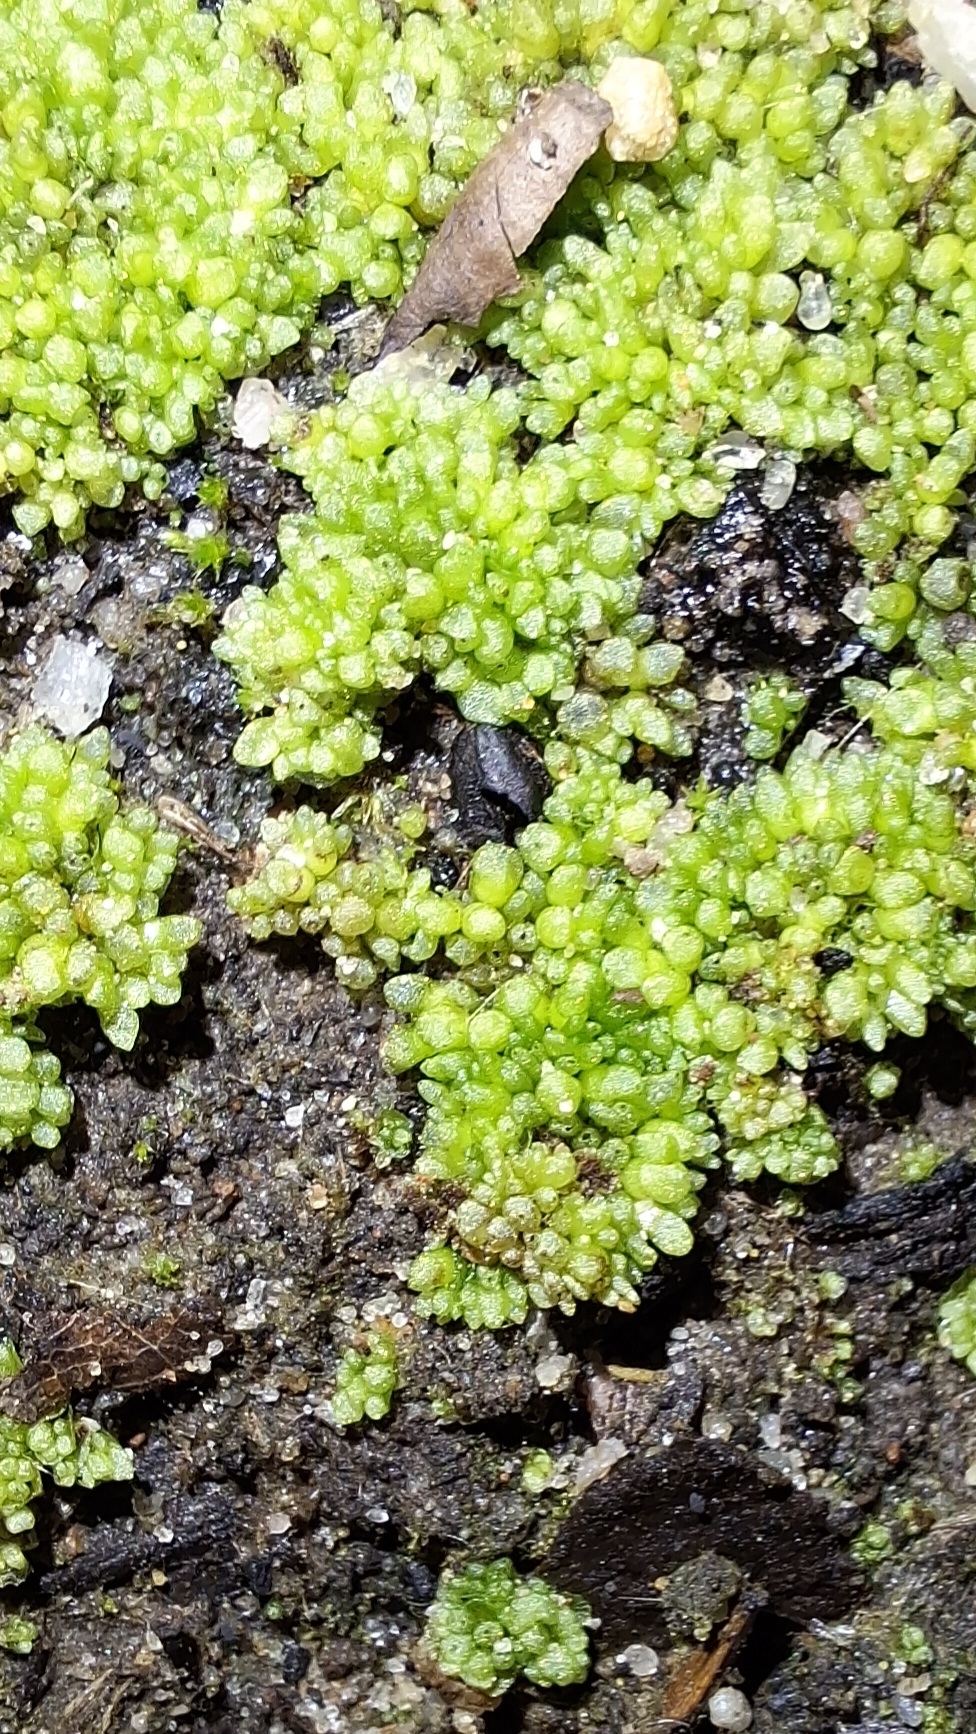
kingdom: Plantae
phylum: Marchantiophyta
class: Marchantiopsida
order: Sphaerocarpales
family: Sphaerocarpaceae
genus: Sphaerocarpos
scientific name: Sphaerocarpos texanus
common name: Texas balloonwort
